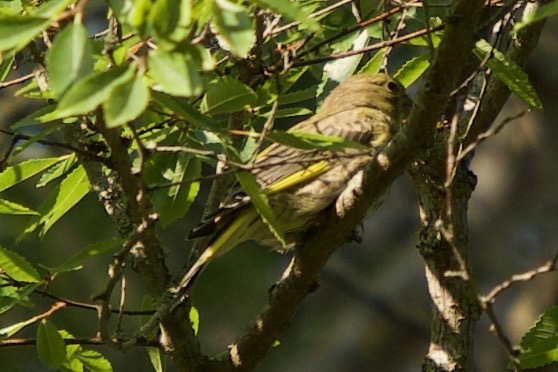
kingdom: Plantae
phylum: Tracheophyta
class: Liliopsida
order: Poales
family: Poaceae
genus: Chloris
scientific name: Chloris chloris
